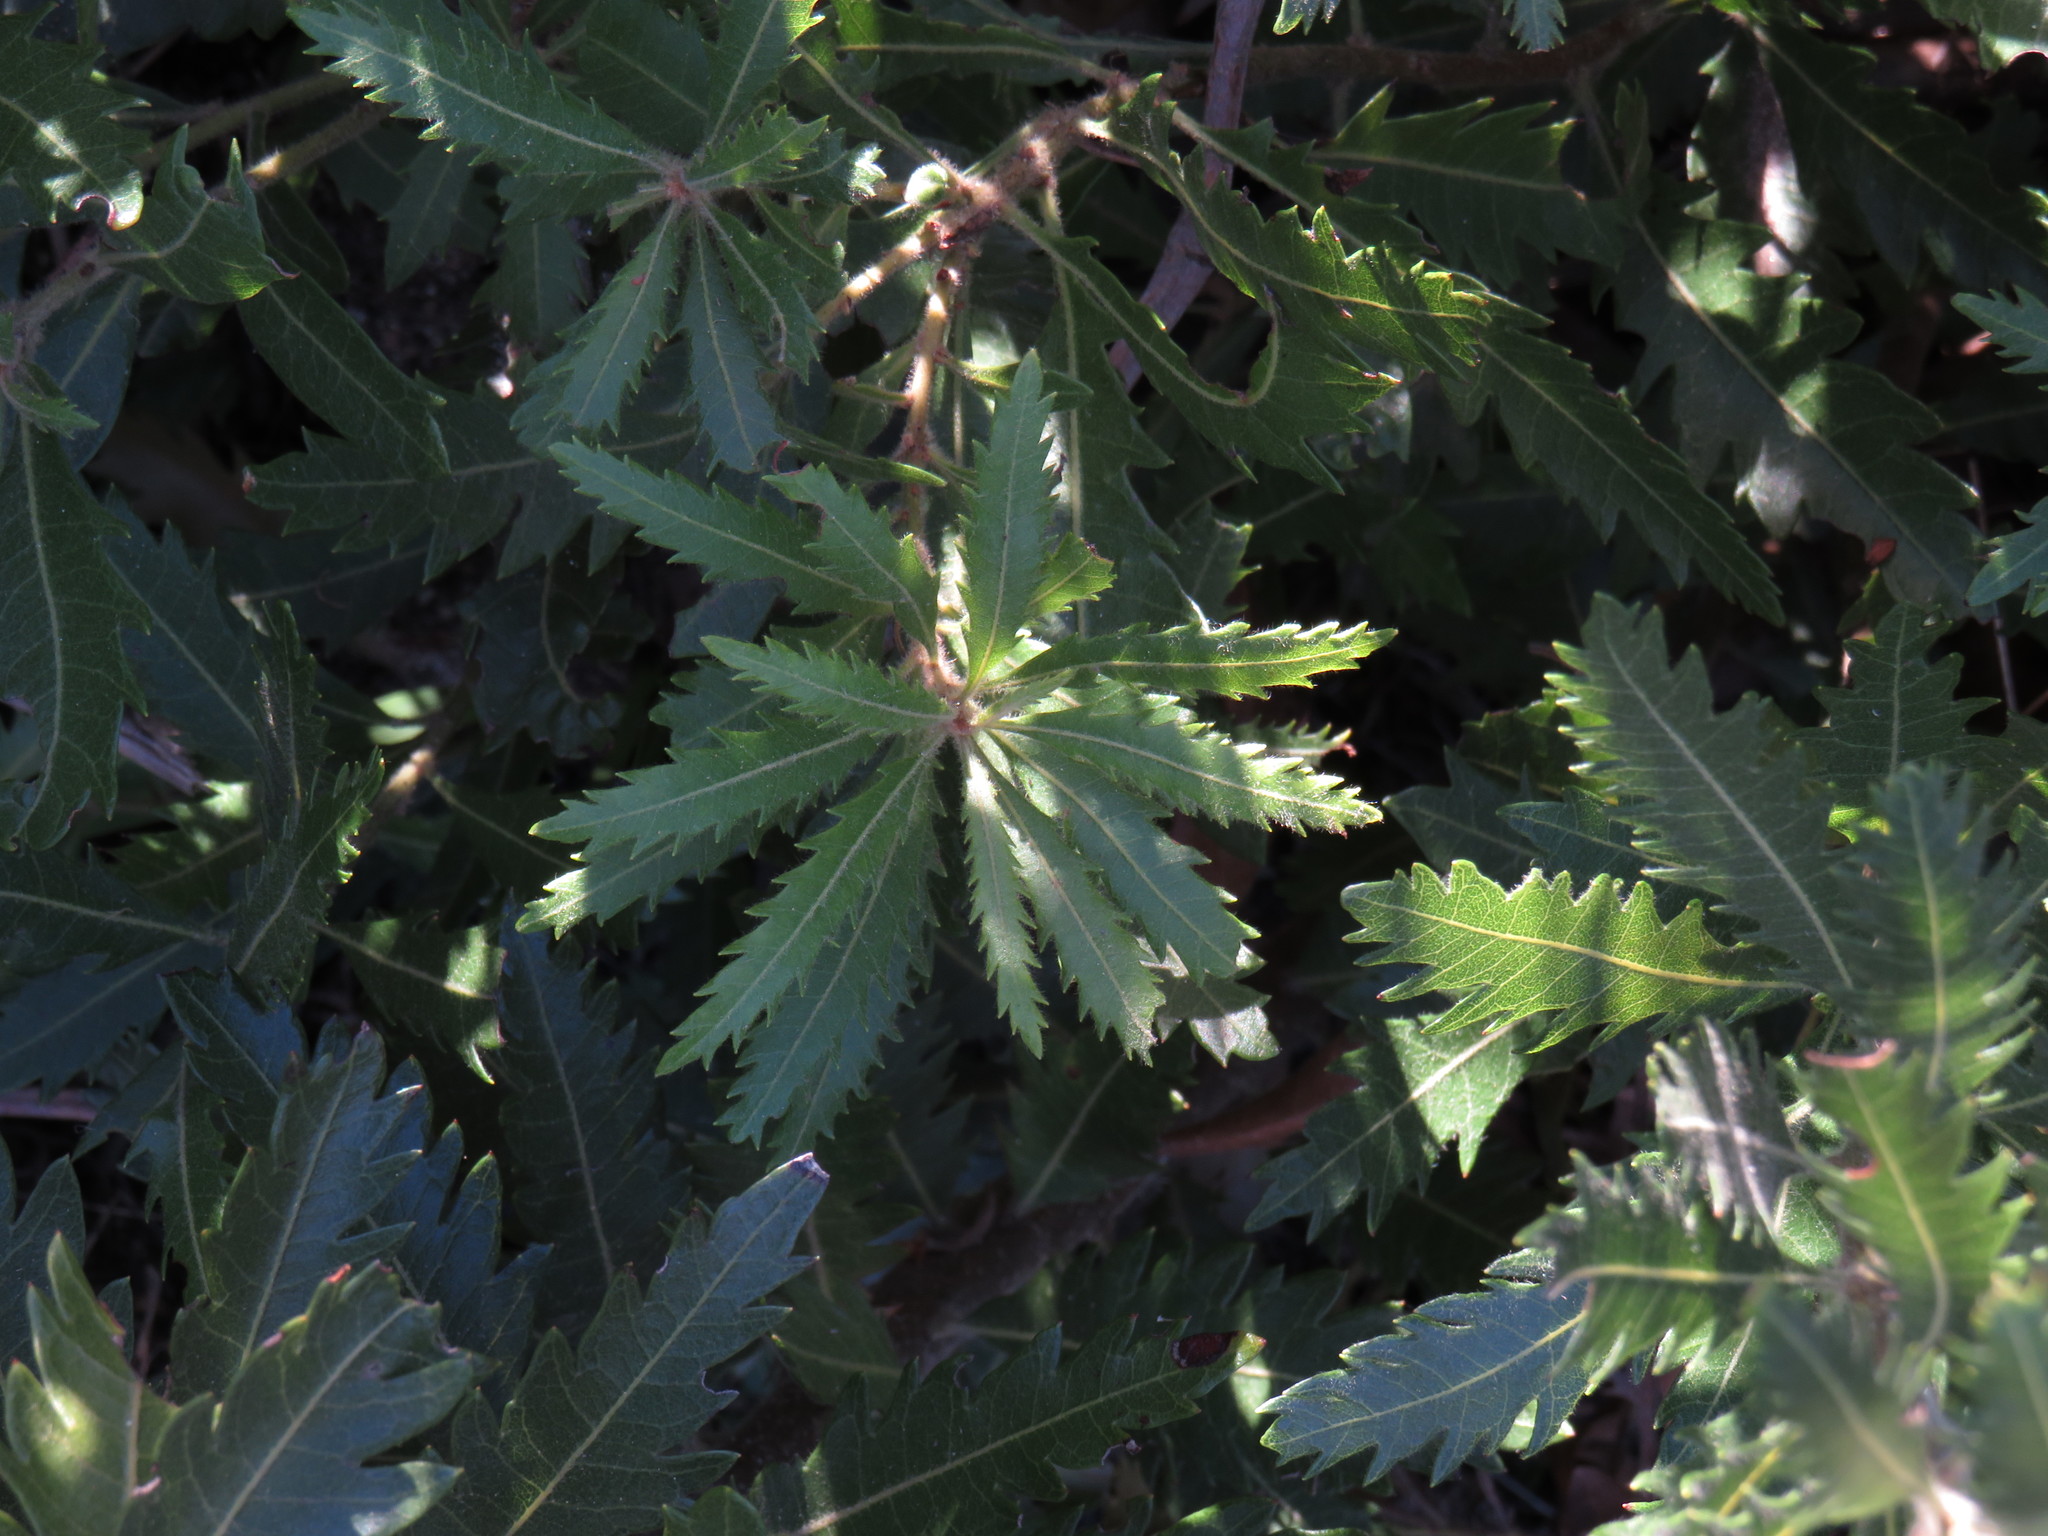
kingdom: Plantae
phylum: Tracheophyta
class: Magnoliopsida
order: Fagales
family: Myricaceae
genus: Morella
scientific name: Morella serrata
